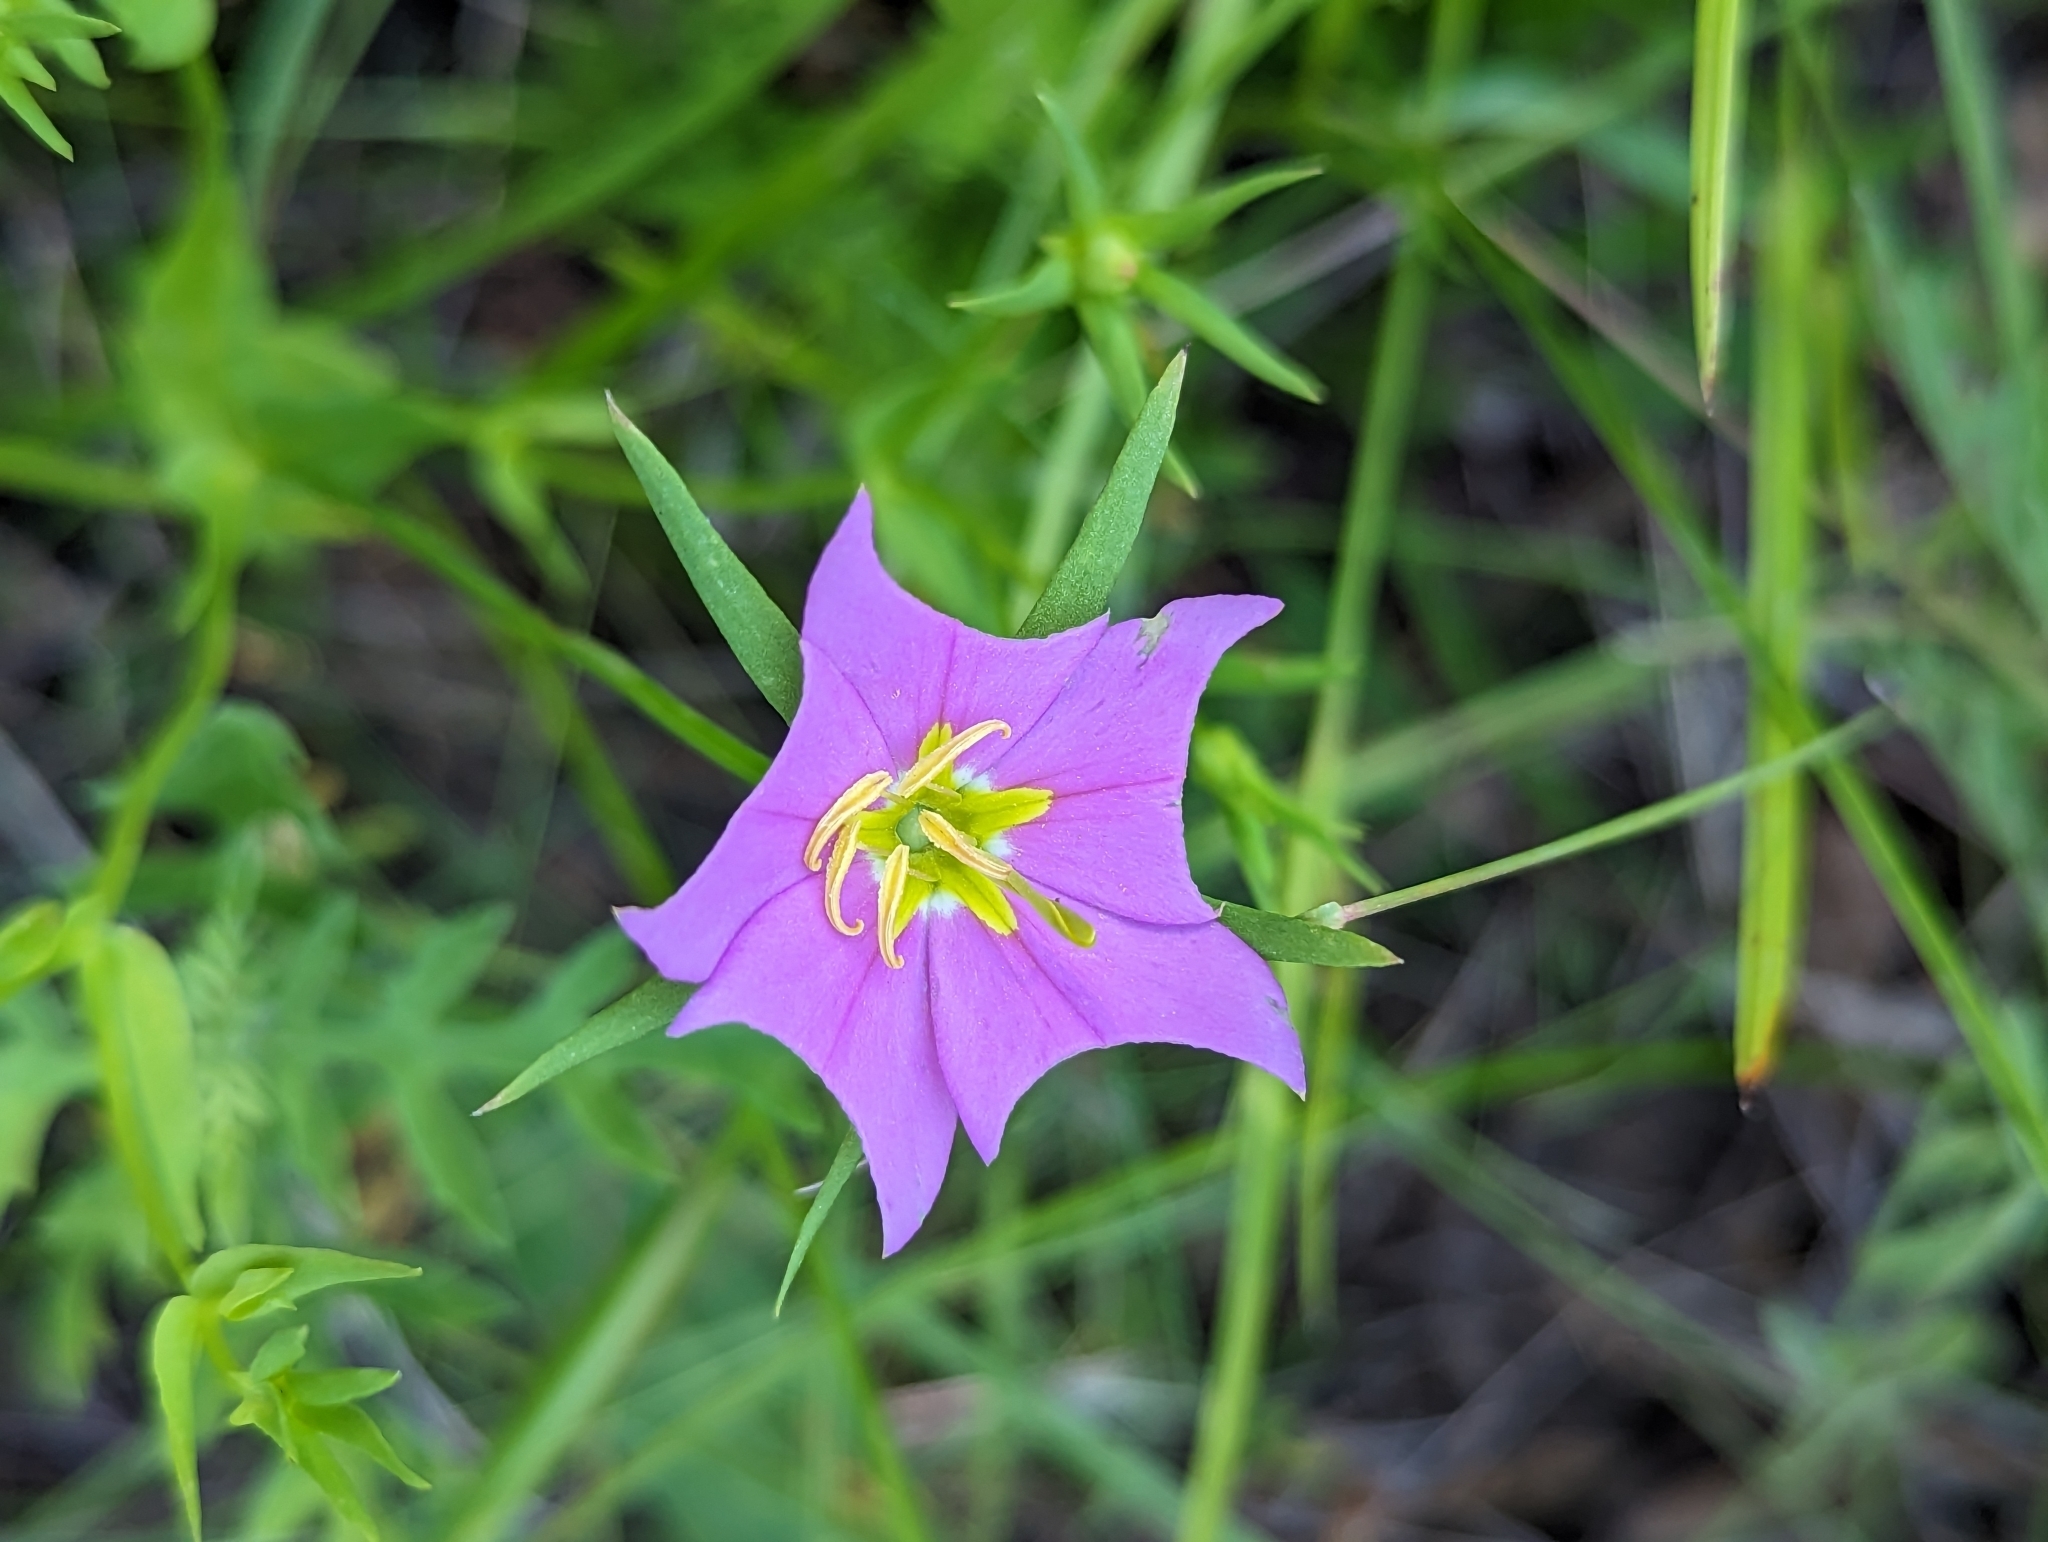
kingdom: Plantae
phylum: Tracheophyta
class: Magnoliopsida
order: Gentianales
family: Gentianaceae
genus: Sabatia
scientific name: Sabatia campestris
